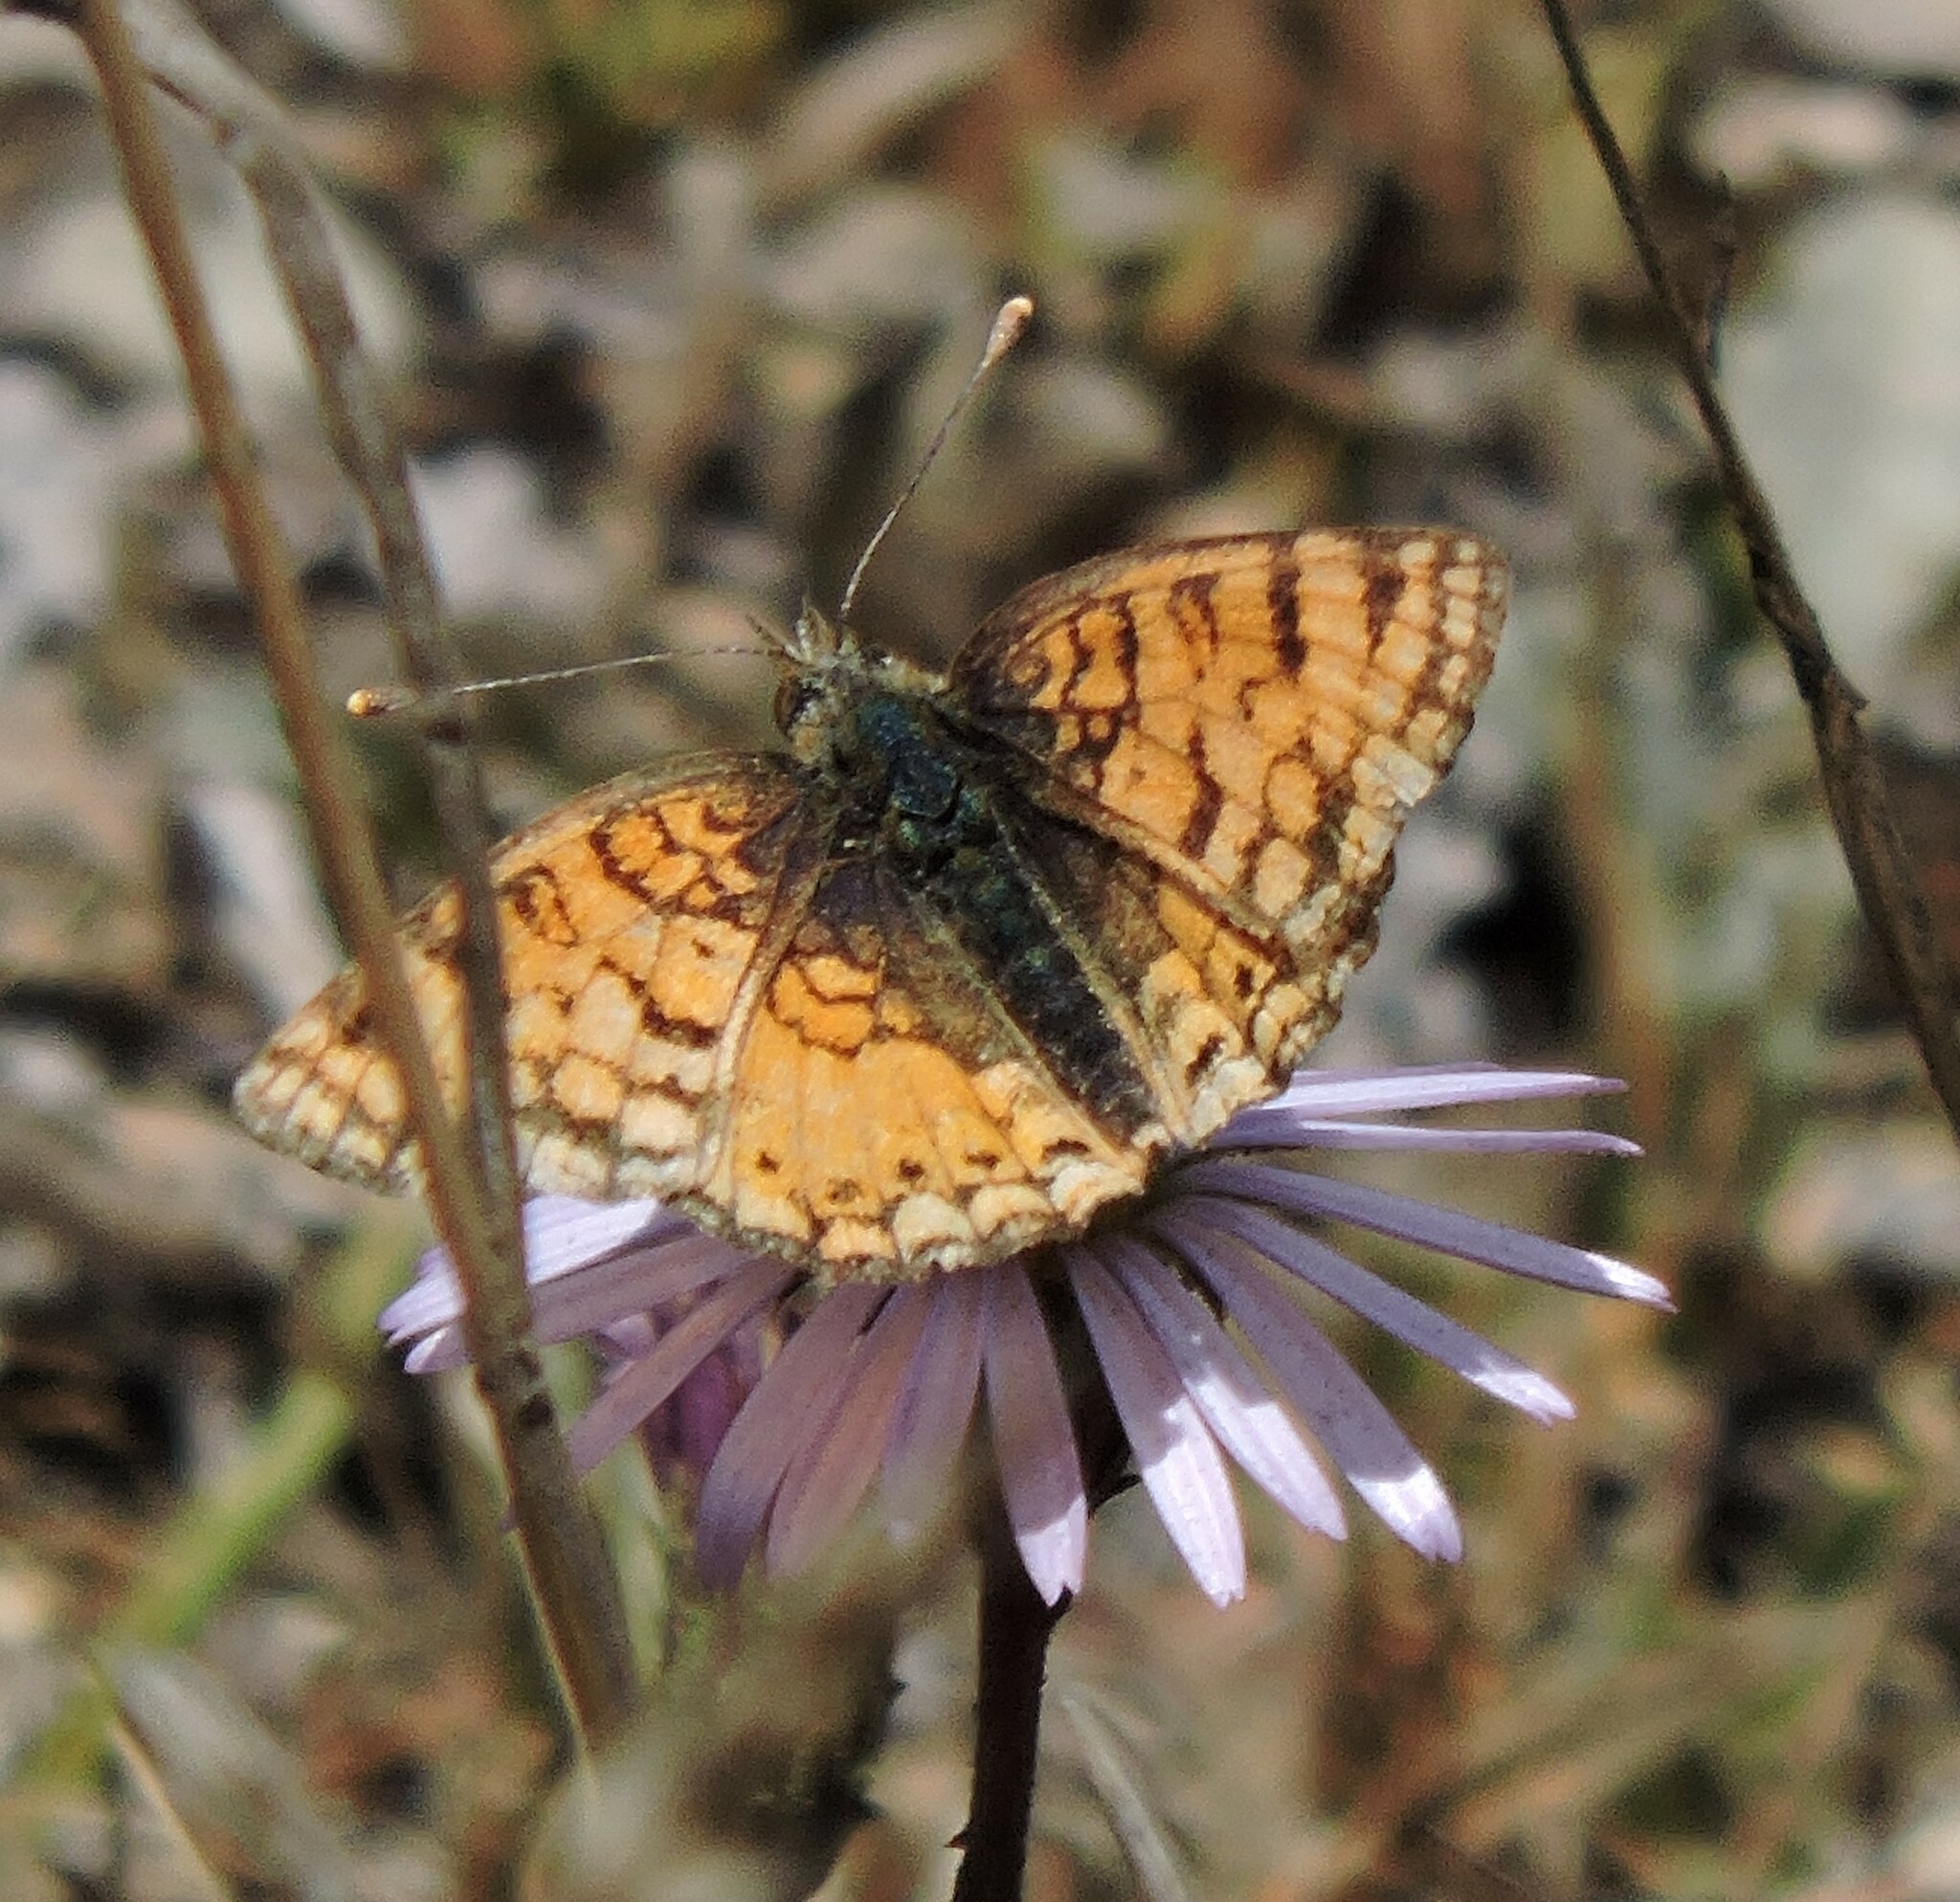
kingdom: Animalia
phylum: Arthropoda
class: Insecta
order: Lepidoptera
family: Nymphalidae
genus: Eresia
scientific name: Eresia aveyrona
